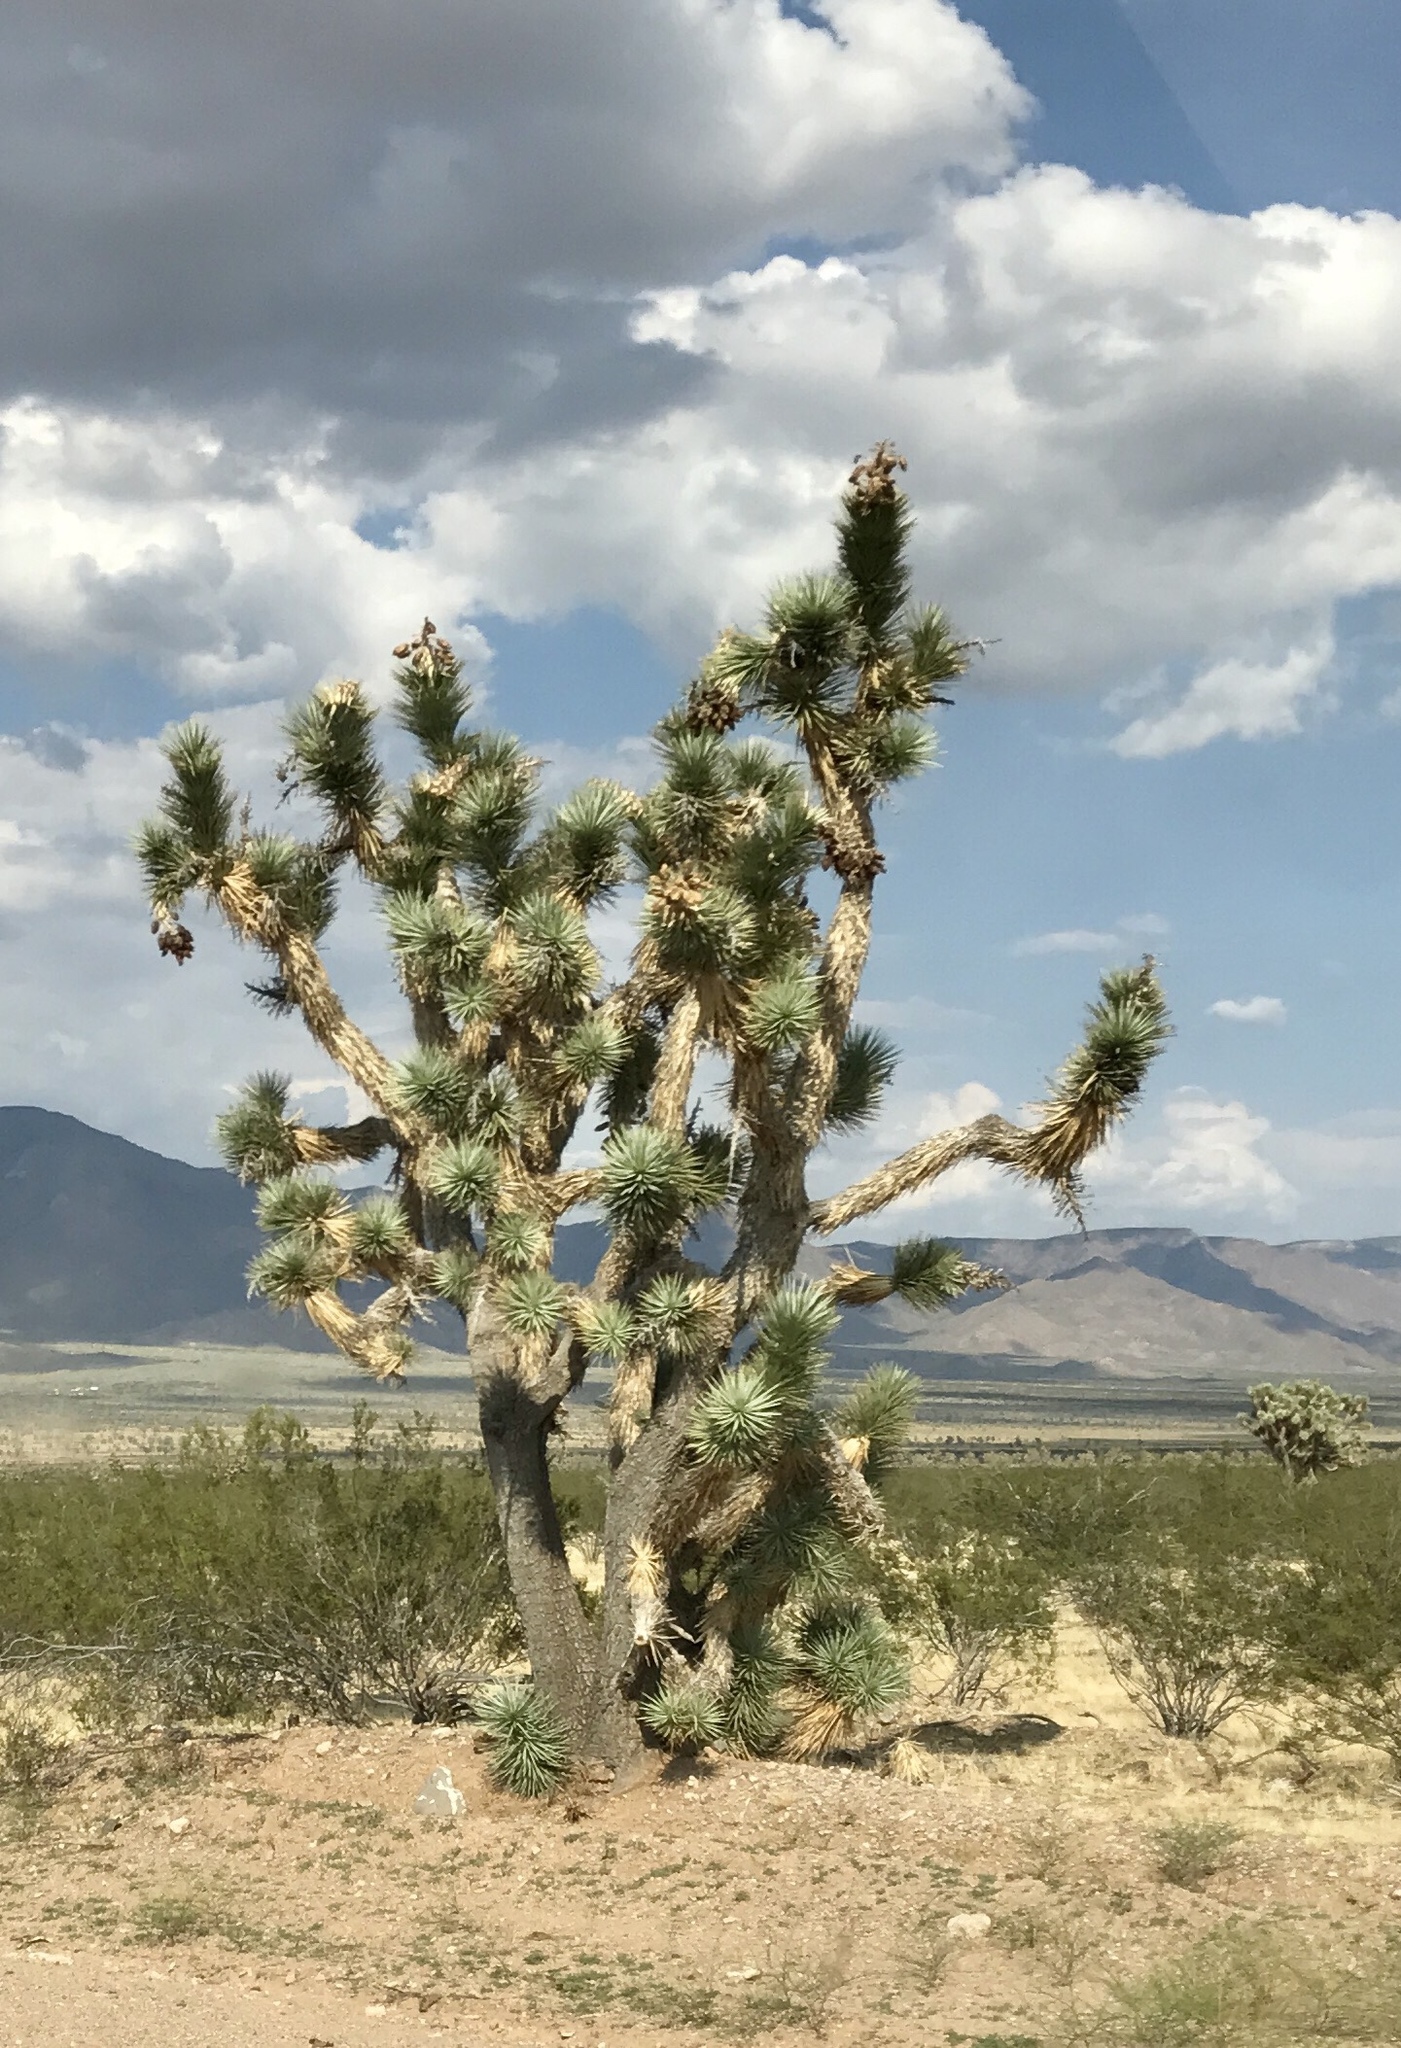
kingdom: Plantae
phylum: Tracheophyta
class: Liliopsida
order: Asparagales
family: Asparagaceae
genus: Yucca
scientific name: Yucca brevifolia
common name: Joshua tree
